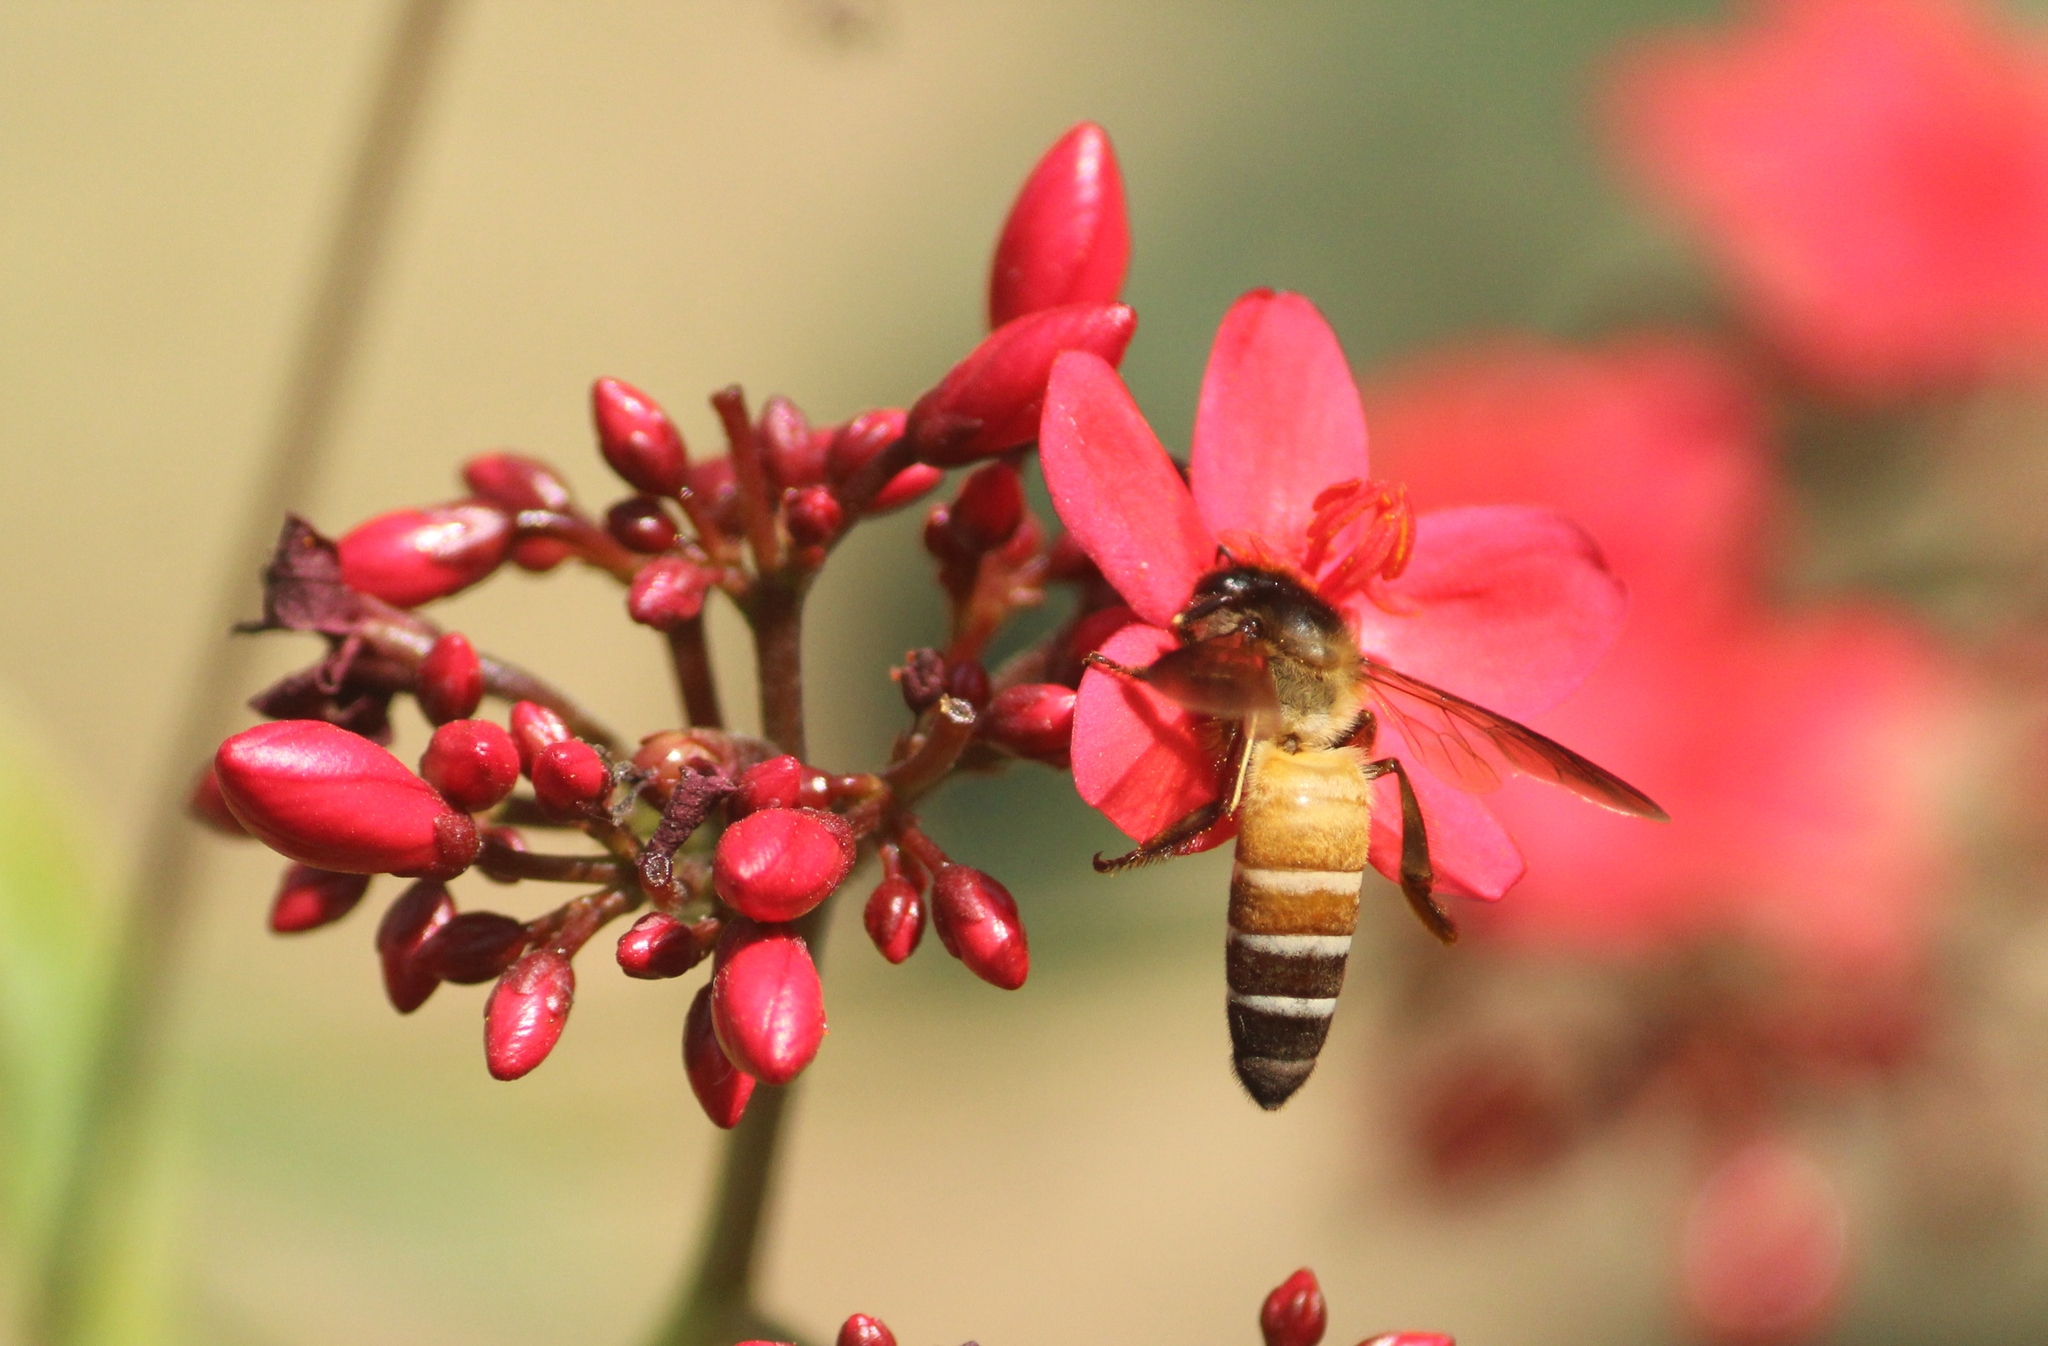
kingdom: Animalia
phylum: Arthropoda
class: Insecta
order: Hymenoptera
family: Apidae
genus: Apis
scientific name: Apis dorsata
